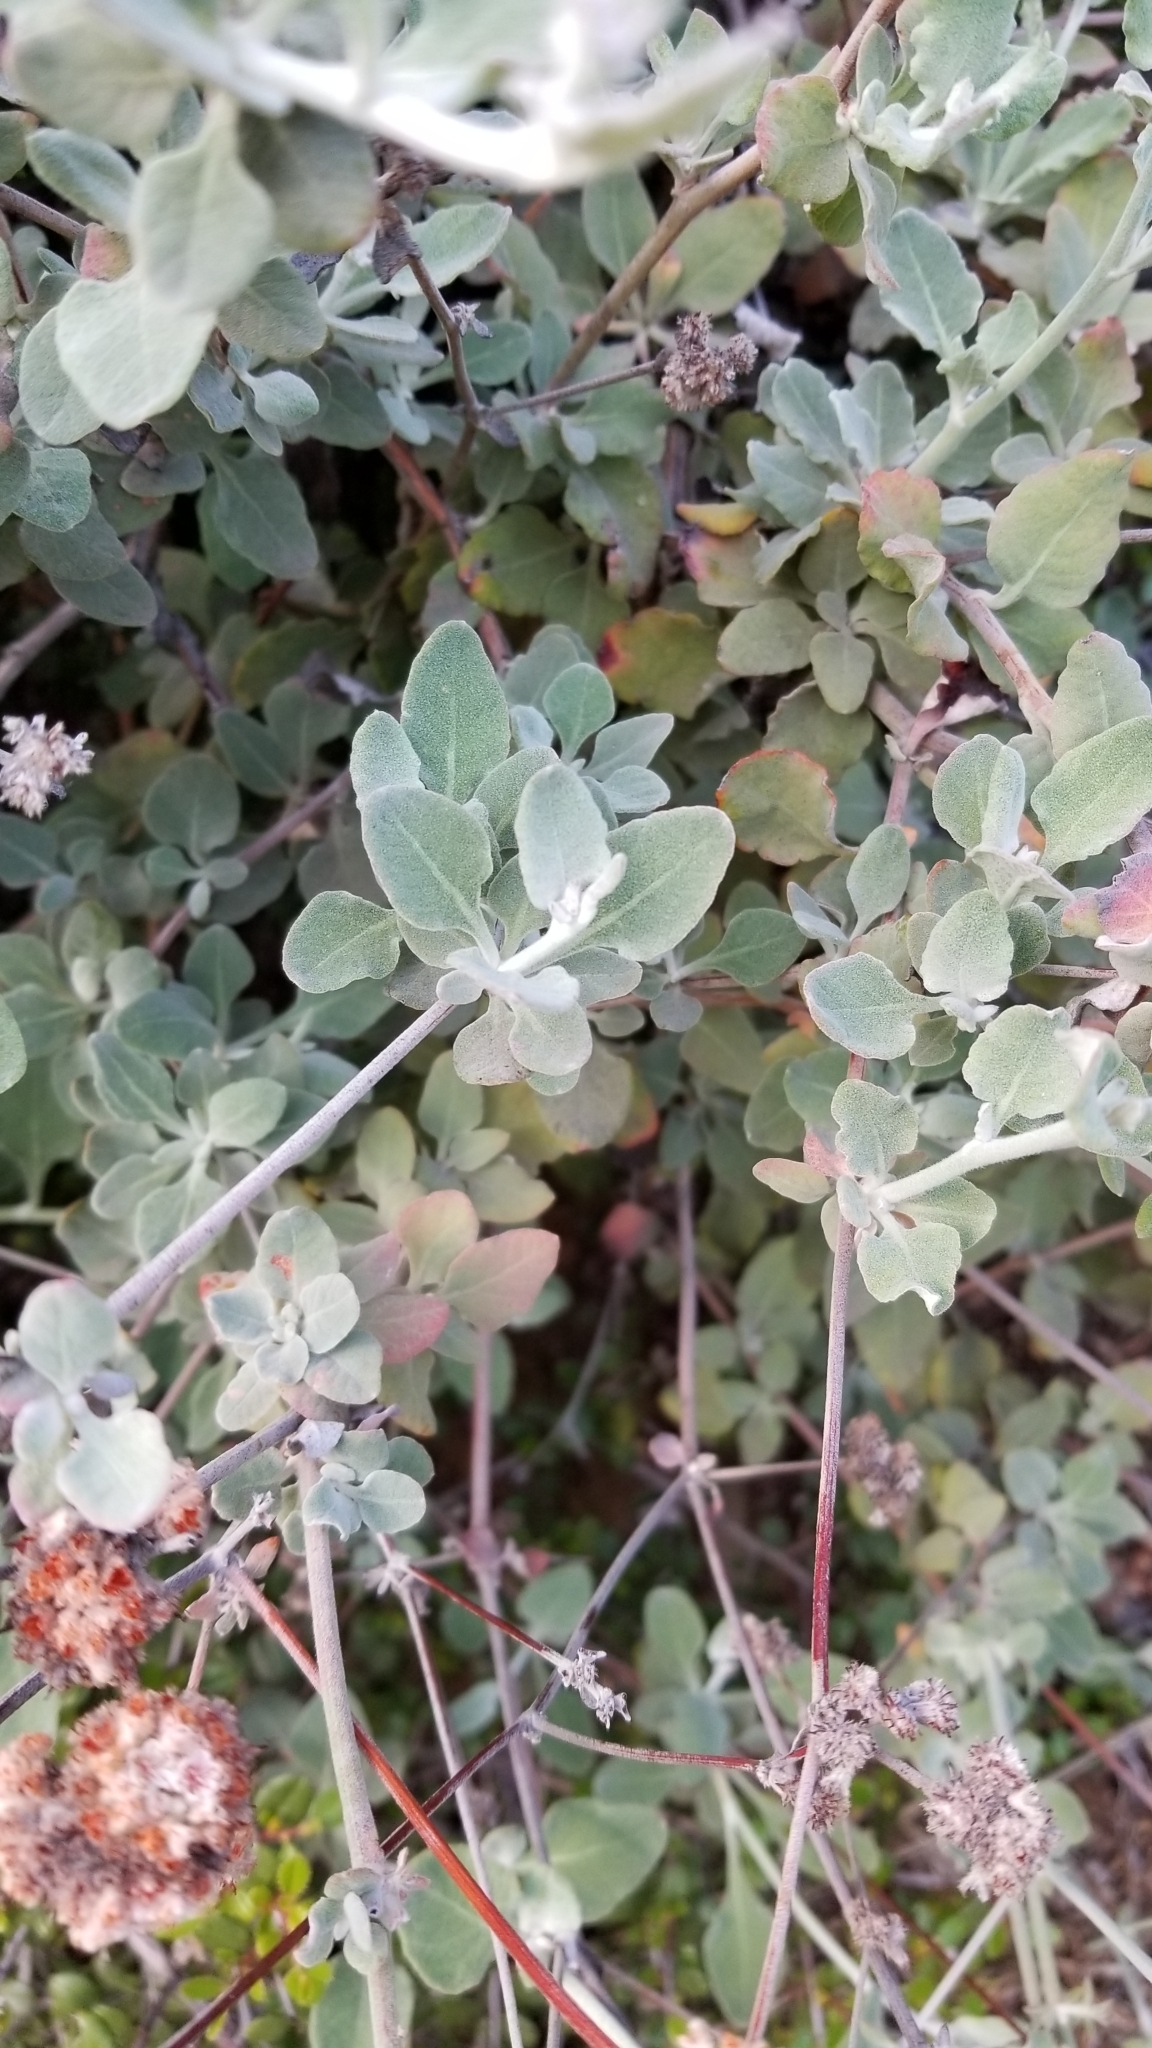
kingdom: Plantae
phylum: Tracheophyta
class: Magnoliopsida
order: Caryophyllales
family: Polygonaceae
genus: Eriogonum
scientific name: Eriogonum cinereum
